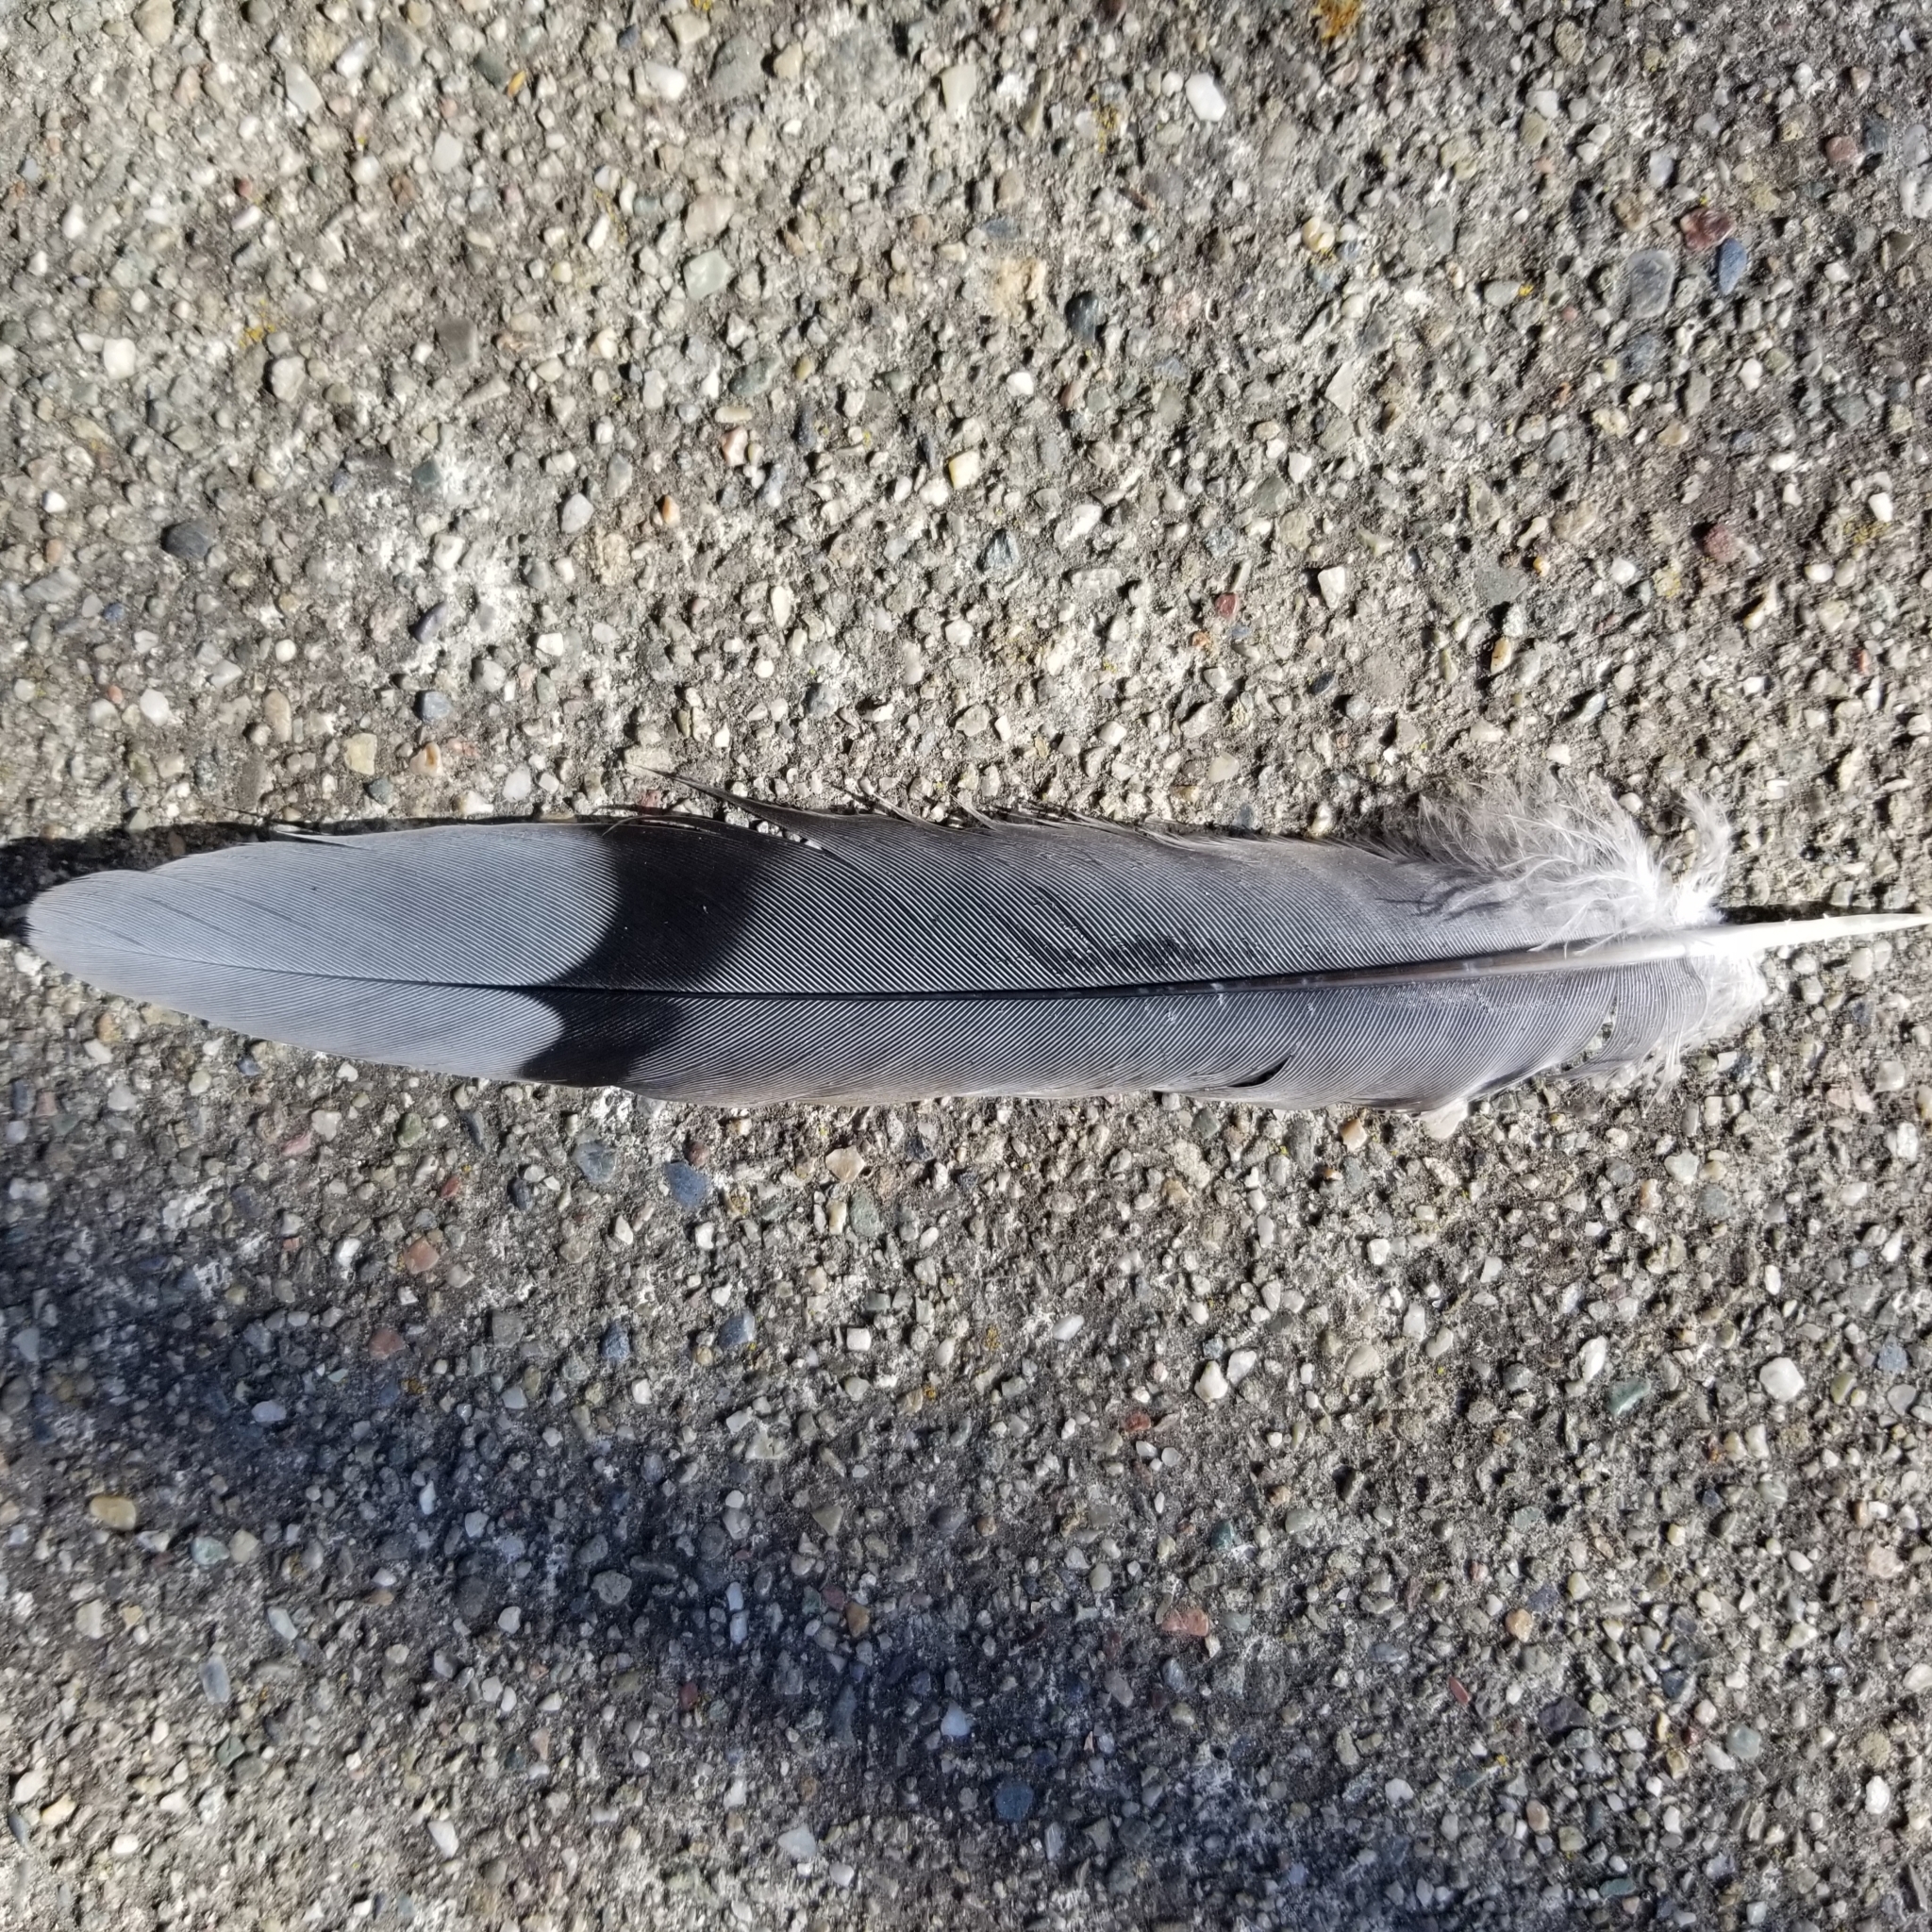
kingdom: Animalia
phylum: Chordata
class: Aves
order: Columbiformes
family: Columbidae
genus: Zenaida
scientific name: Zenaida macroura
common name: Mourning dove
